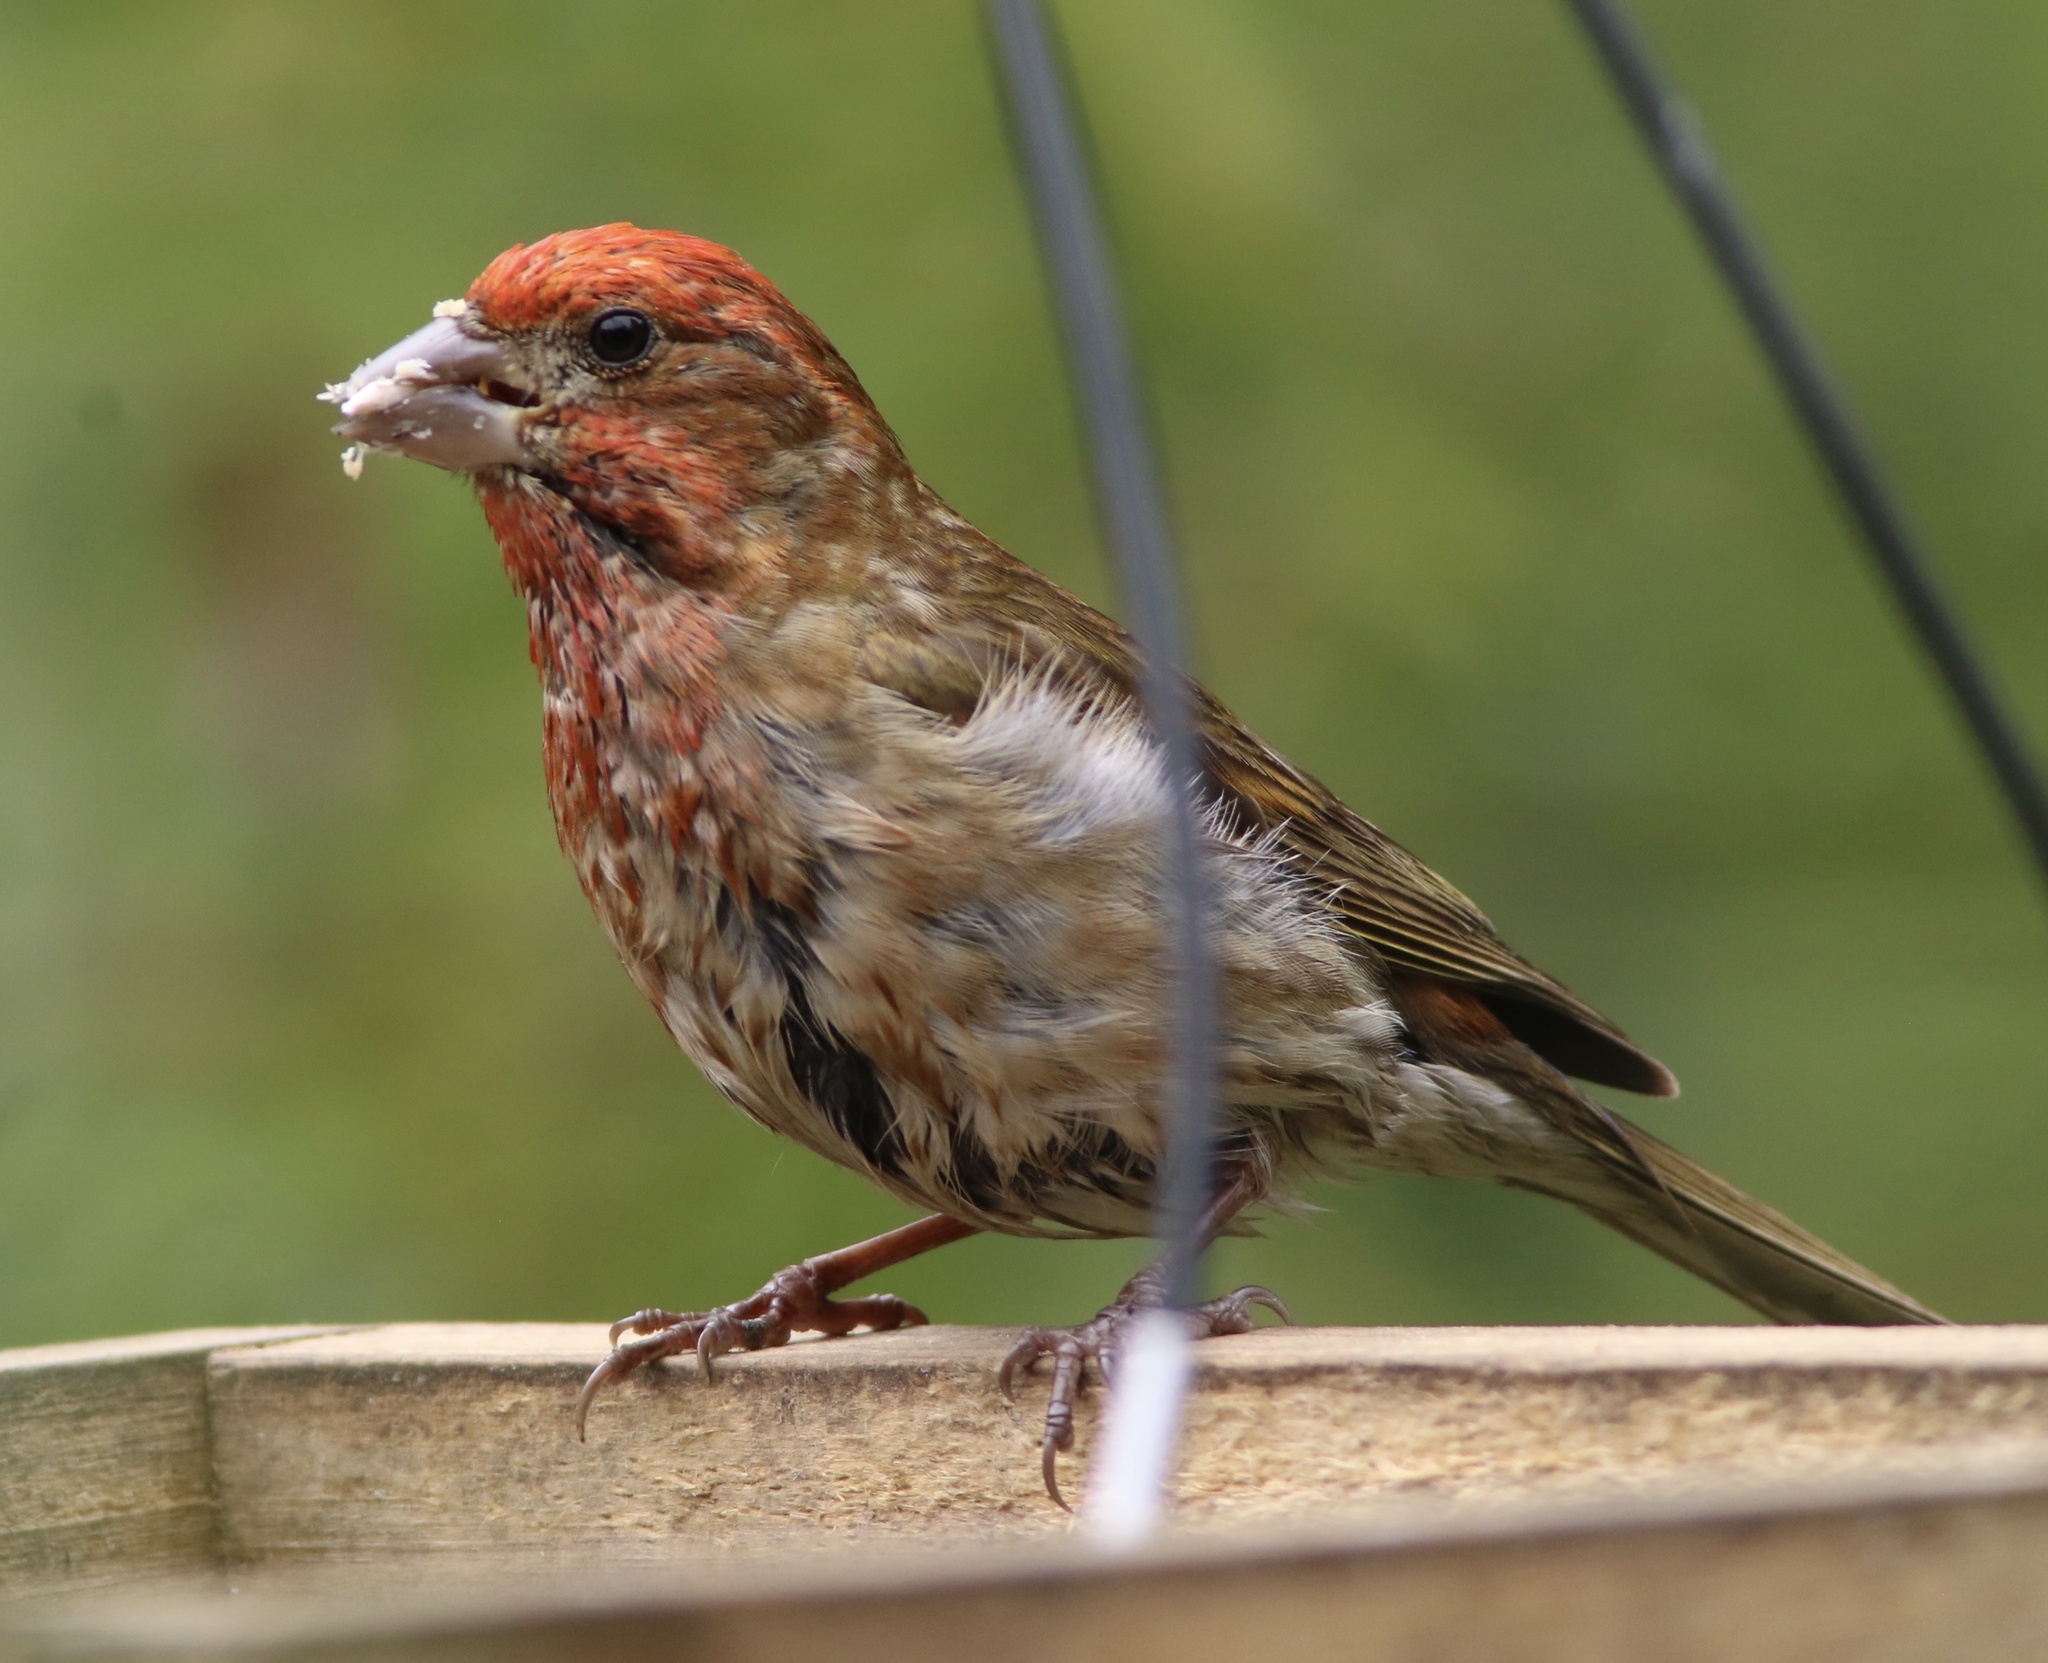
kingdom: Animalia
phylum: Chordata
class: Aves
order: Passeriformes
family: Fringillidae
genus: Haemorhous
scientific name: Haemorhous purpureus
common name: Purple finch
